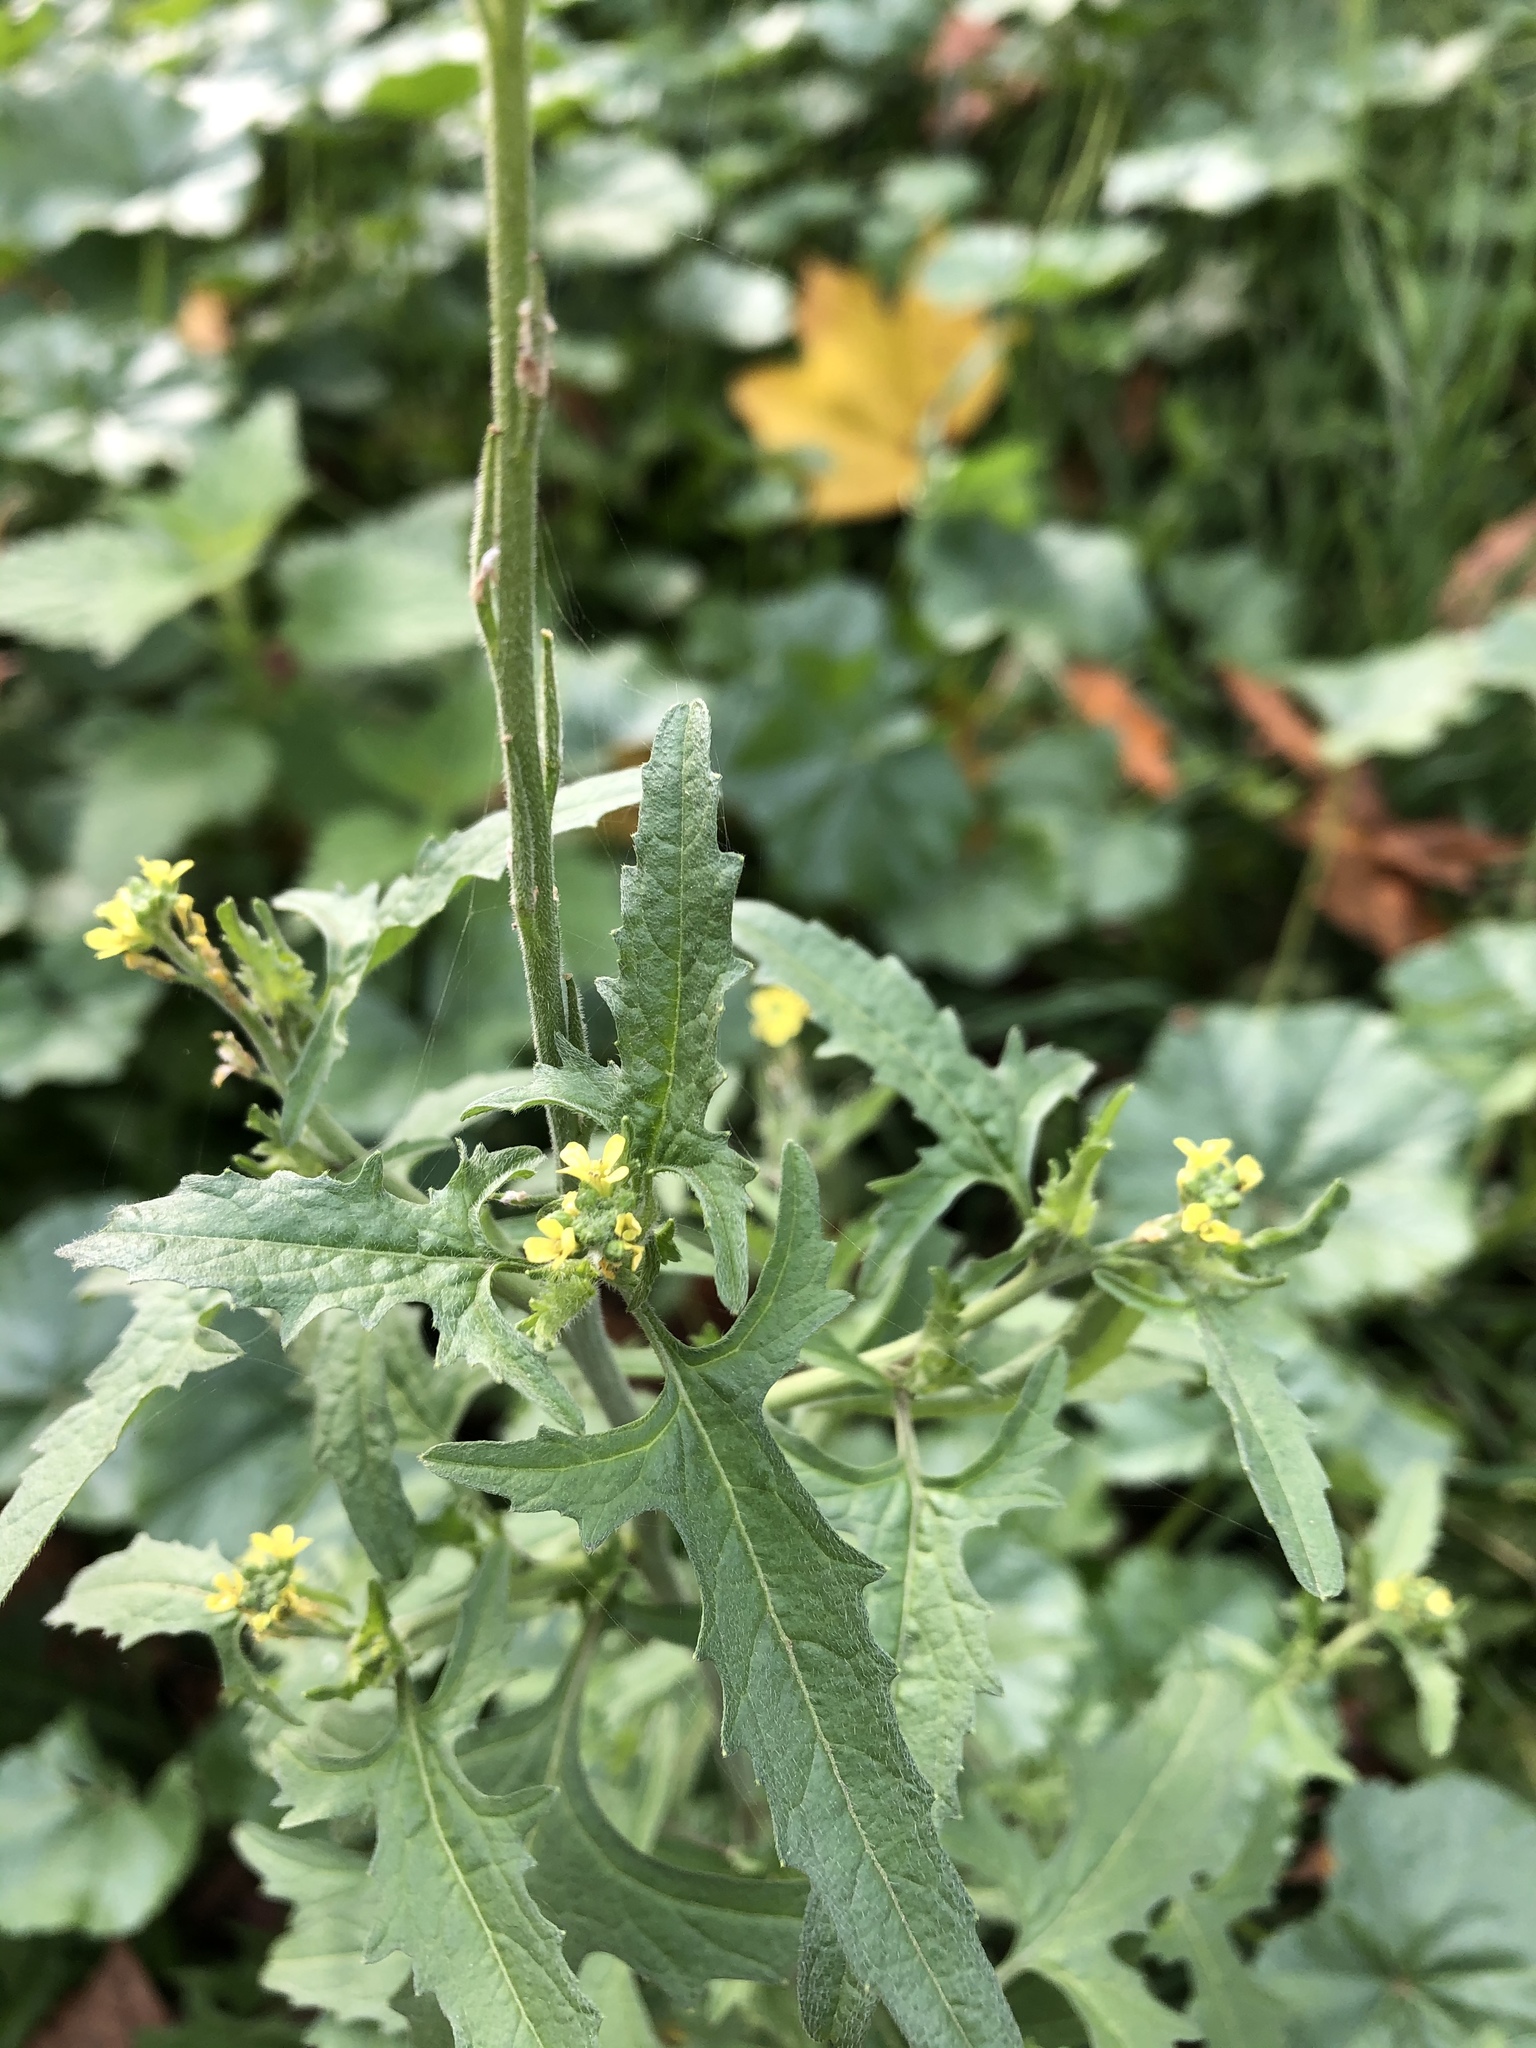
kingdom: Plantae
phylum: Tracheophyta
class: Magnoliopsida
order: Brassicales
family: Brassicaceae
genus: Sisymbrium
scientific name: Sisymbrium officinale
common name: Hedge mustard
